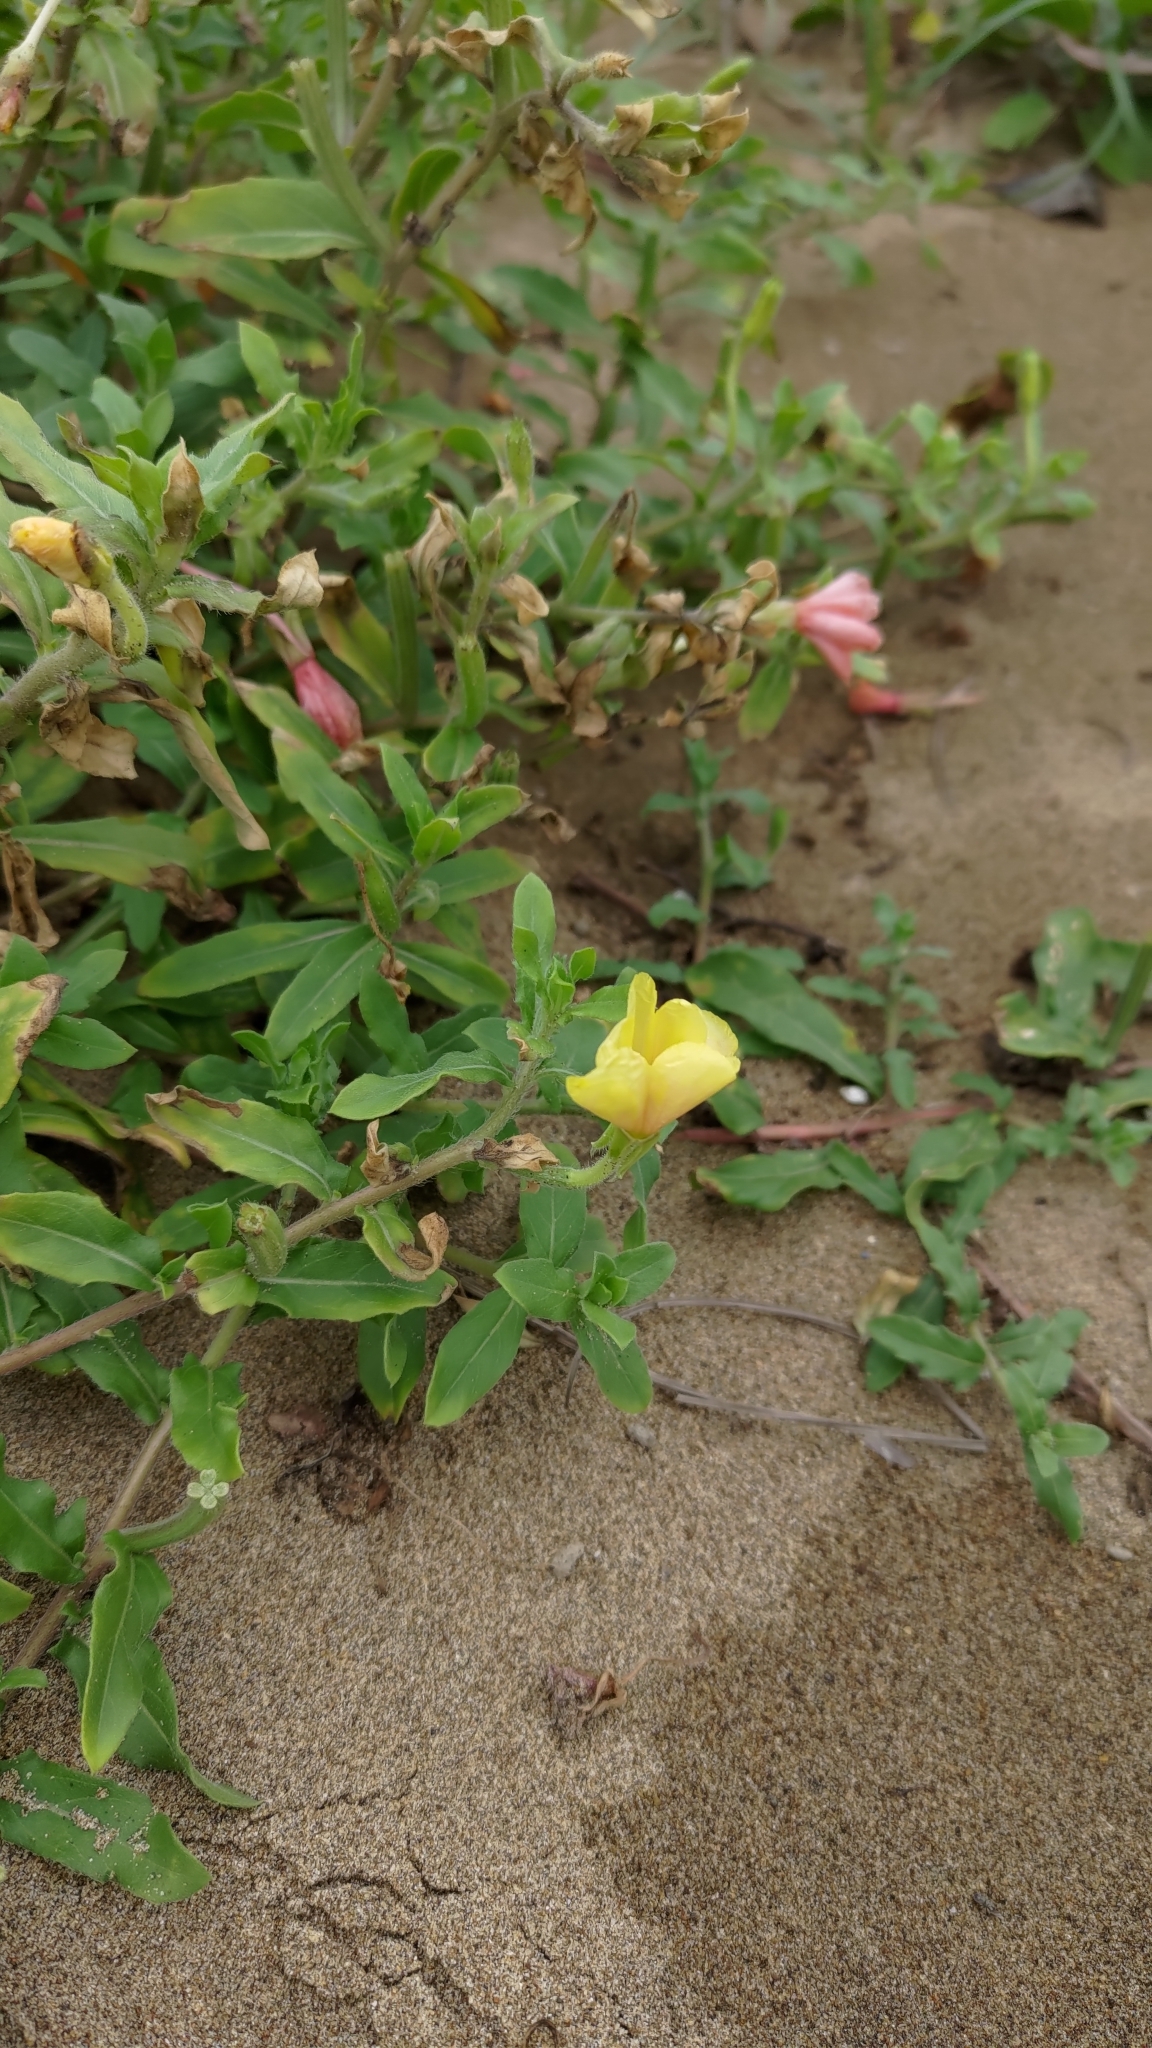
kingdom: Plantae
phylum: Tracheophyta
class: Magnoliopsida
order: Myrtales
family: Onagraceae
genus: Oenothera
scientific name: Oenothera laciniata
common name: Cut-leaved evening-primrose
